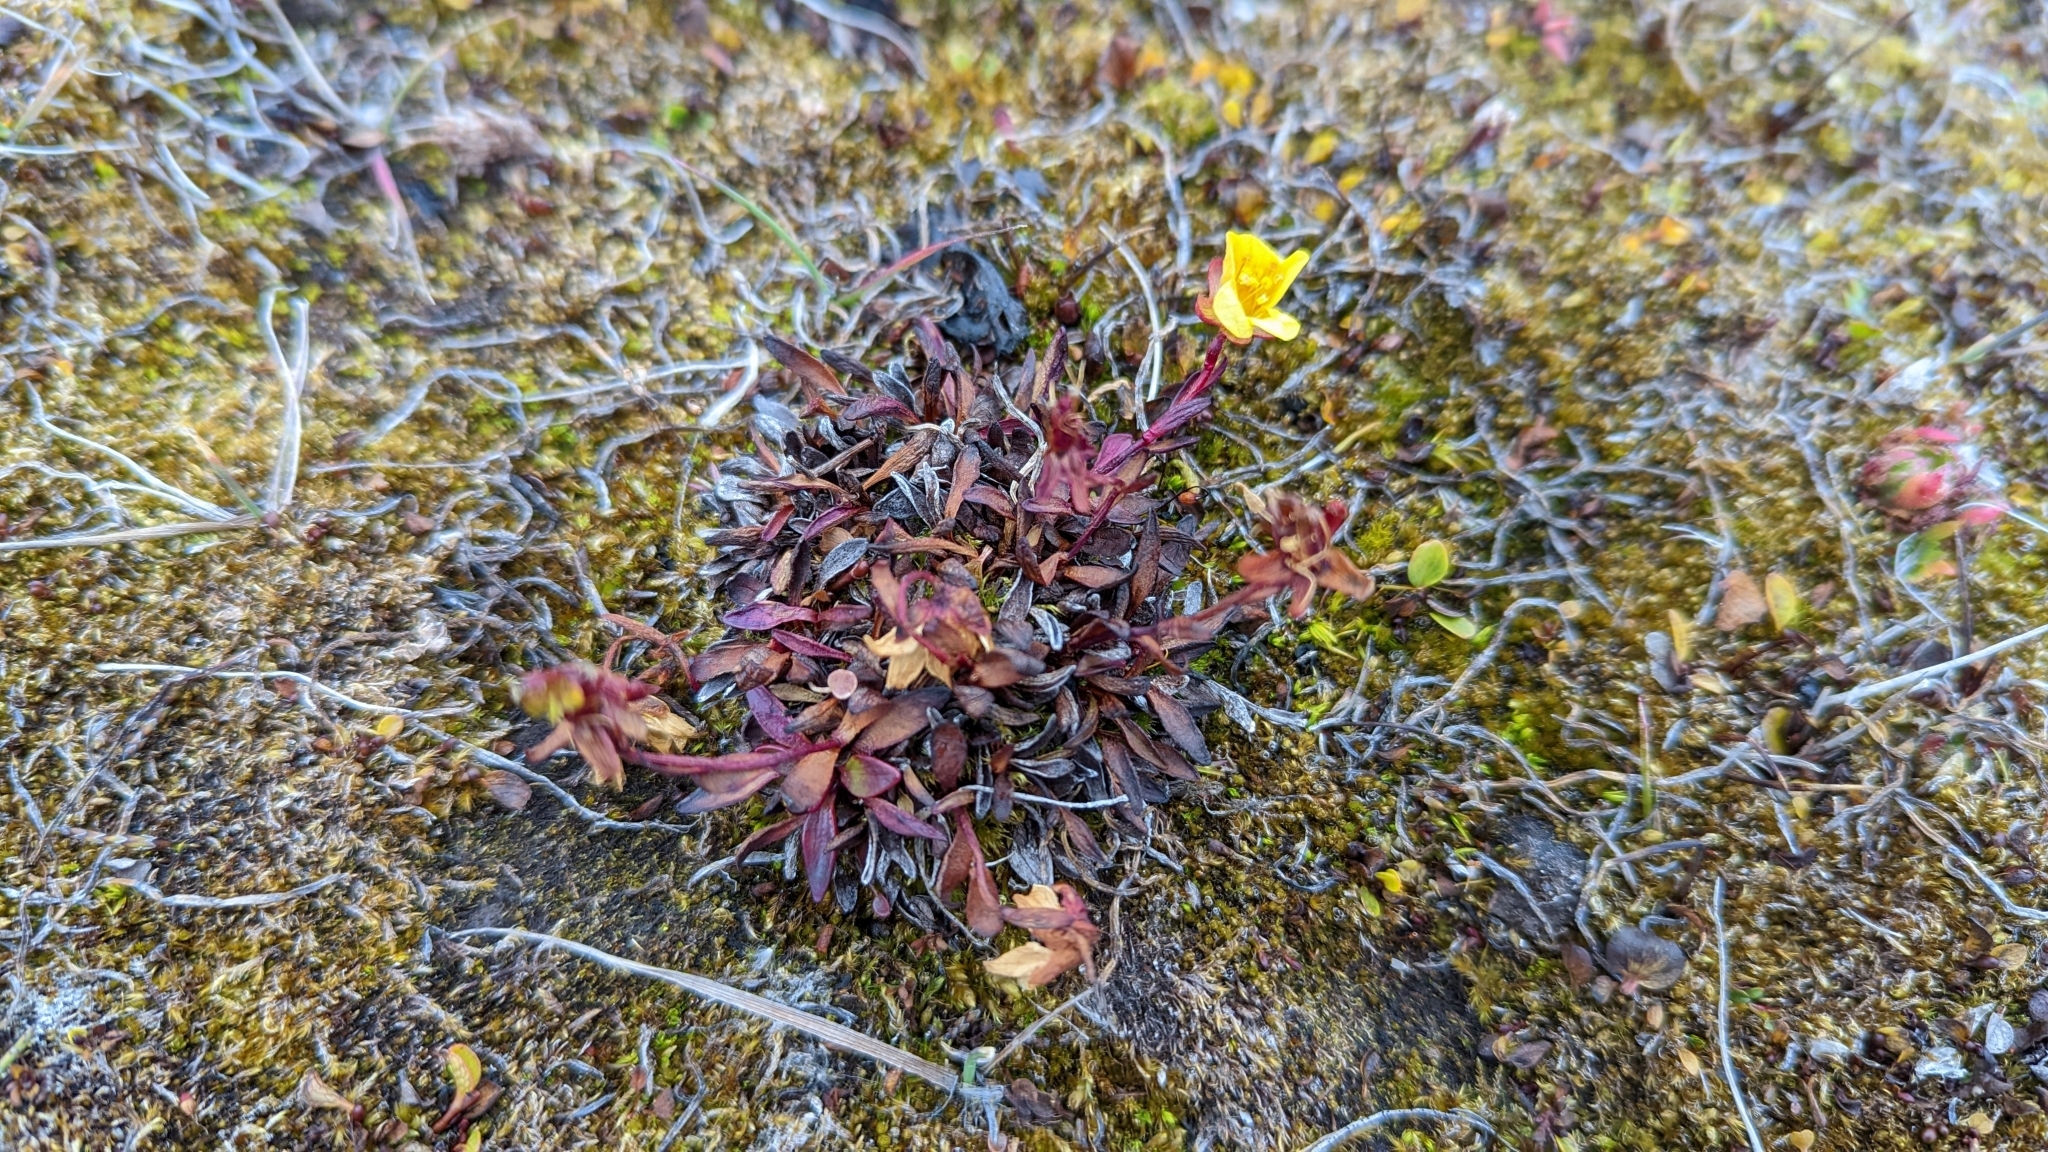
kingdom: Plantae
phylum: Tracheophyta
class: Magnoliopsida
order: Saxifragales
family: Saxifragaceae
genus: Saxifraga
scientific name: Saxifraga hirculus
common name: Yellow marsh saxifrage
